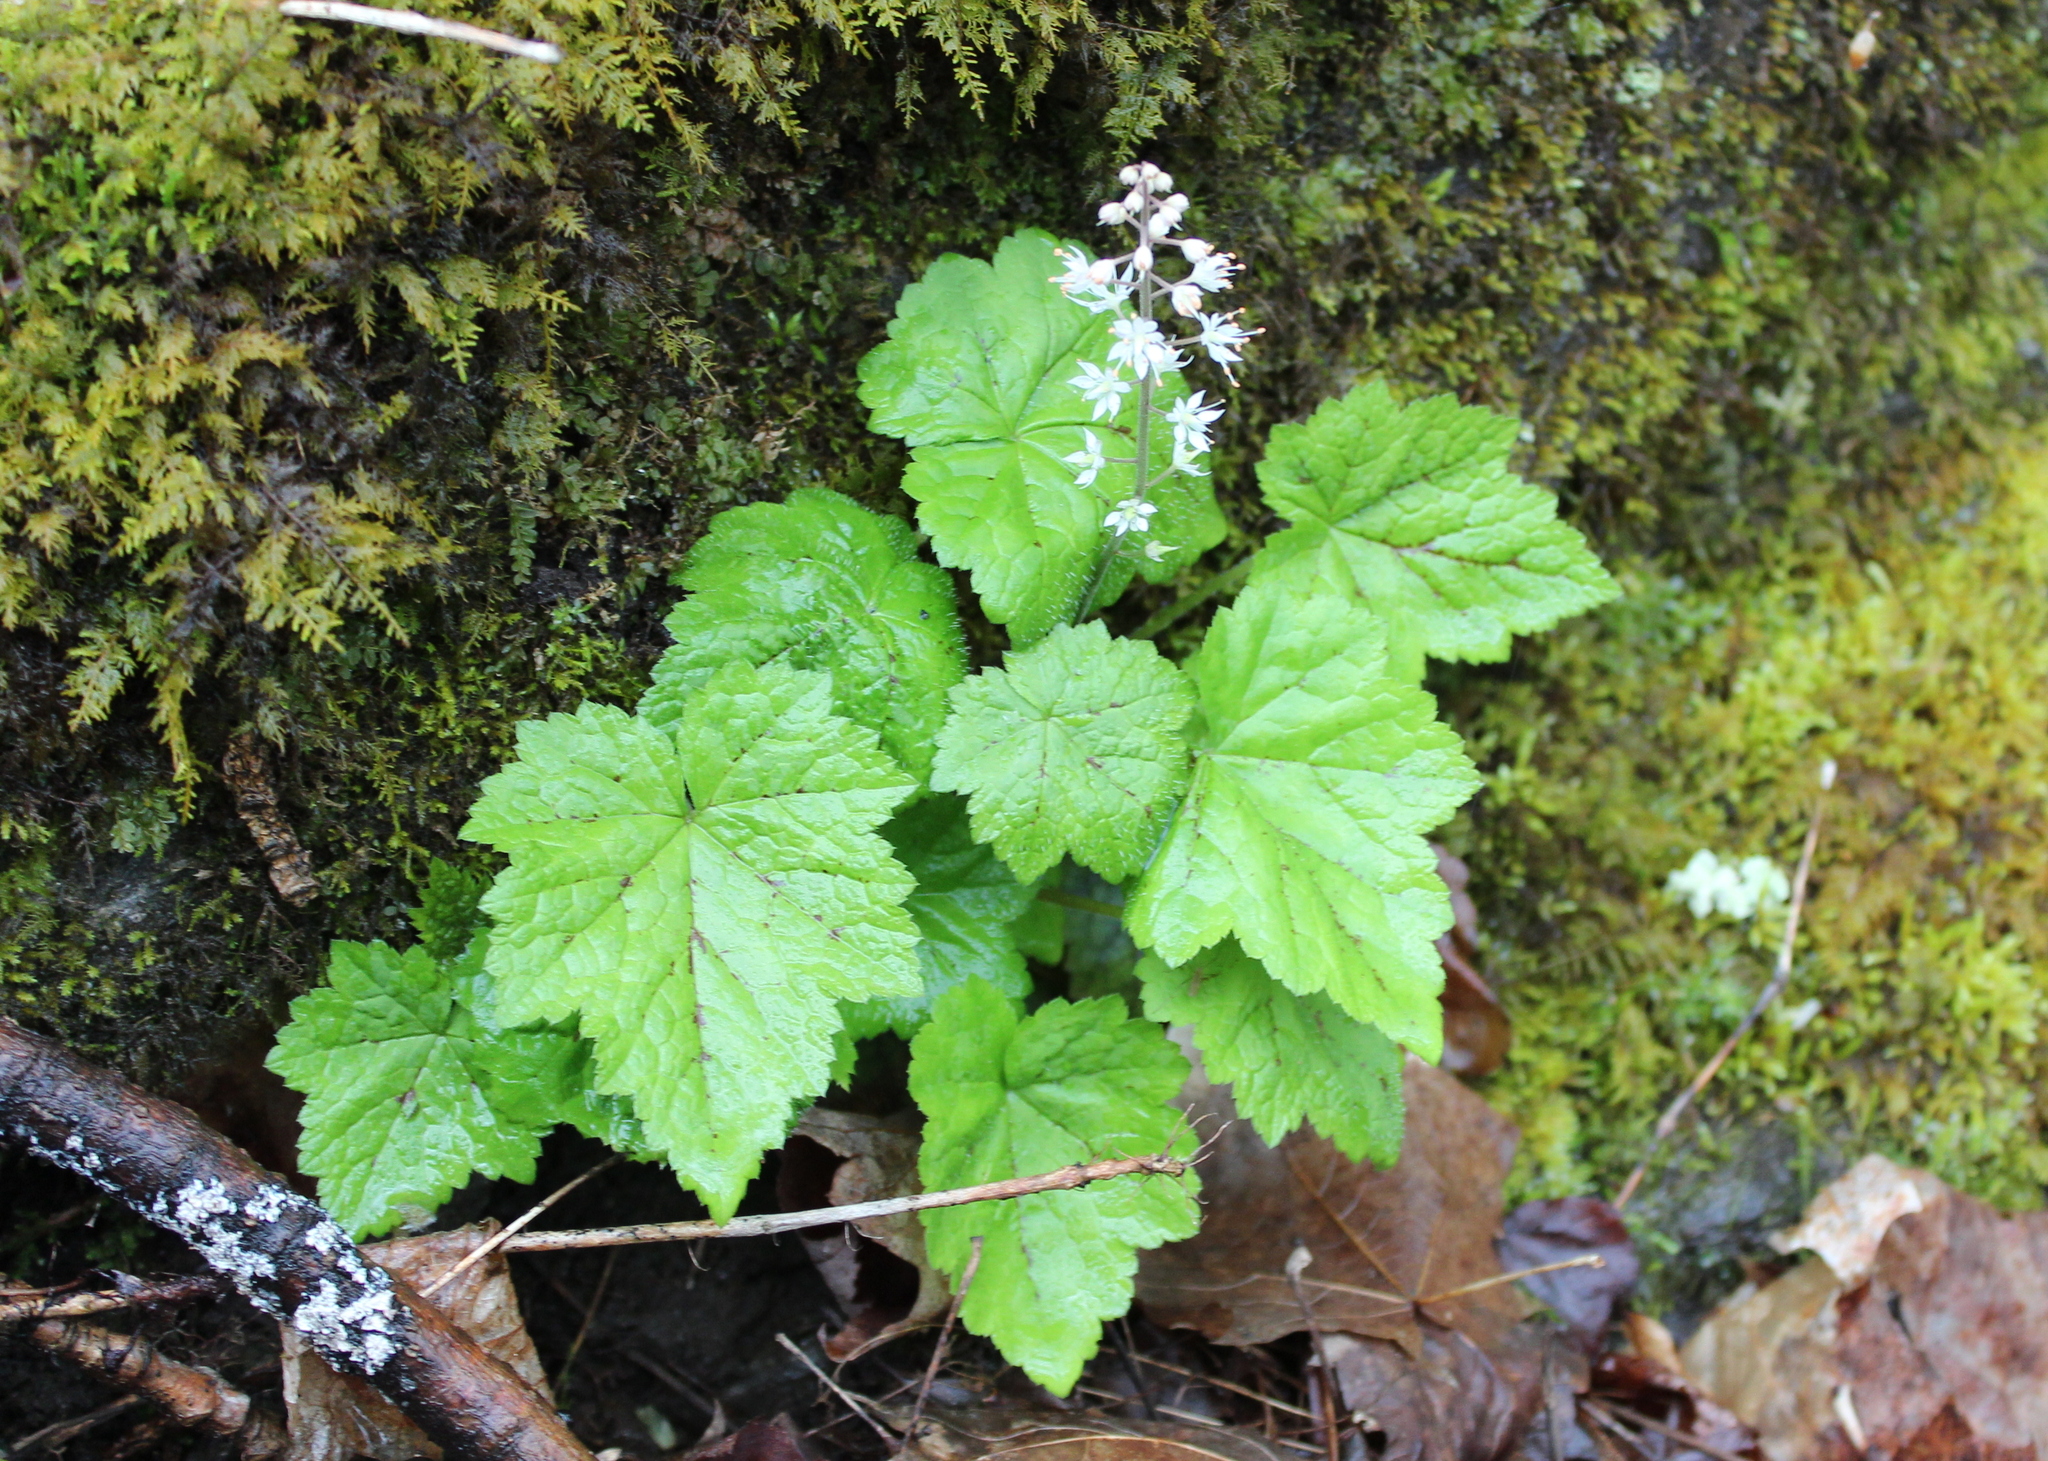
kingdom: Plantae
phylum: Tracheophyta
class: Magnoliopsida
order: Saxifragales
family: Saxifragaceae
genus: Tiarella
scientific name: Tiarella stolonifera
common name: Stoloniferous foamflower
